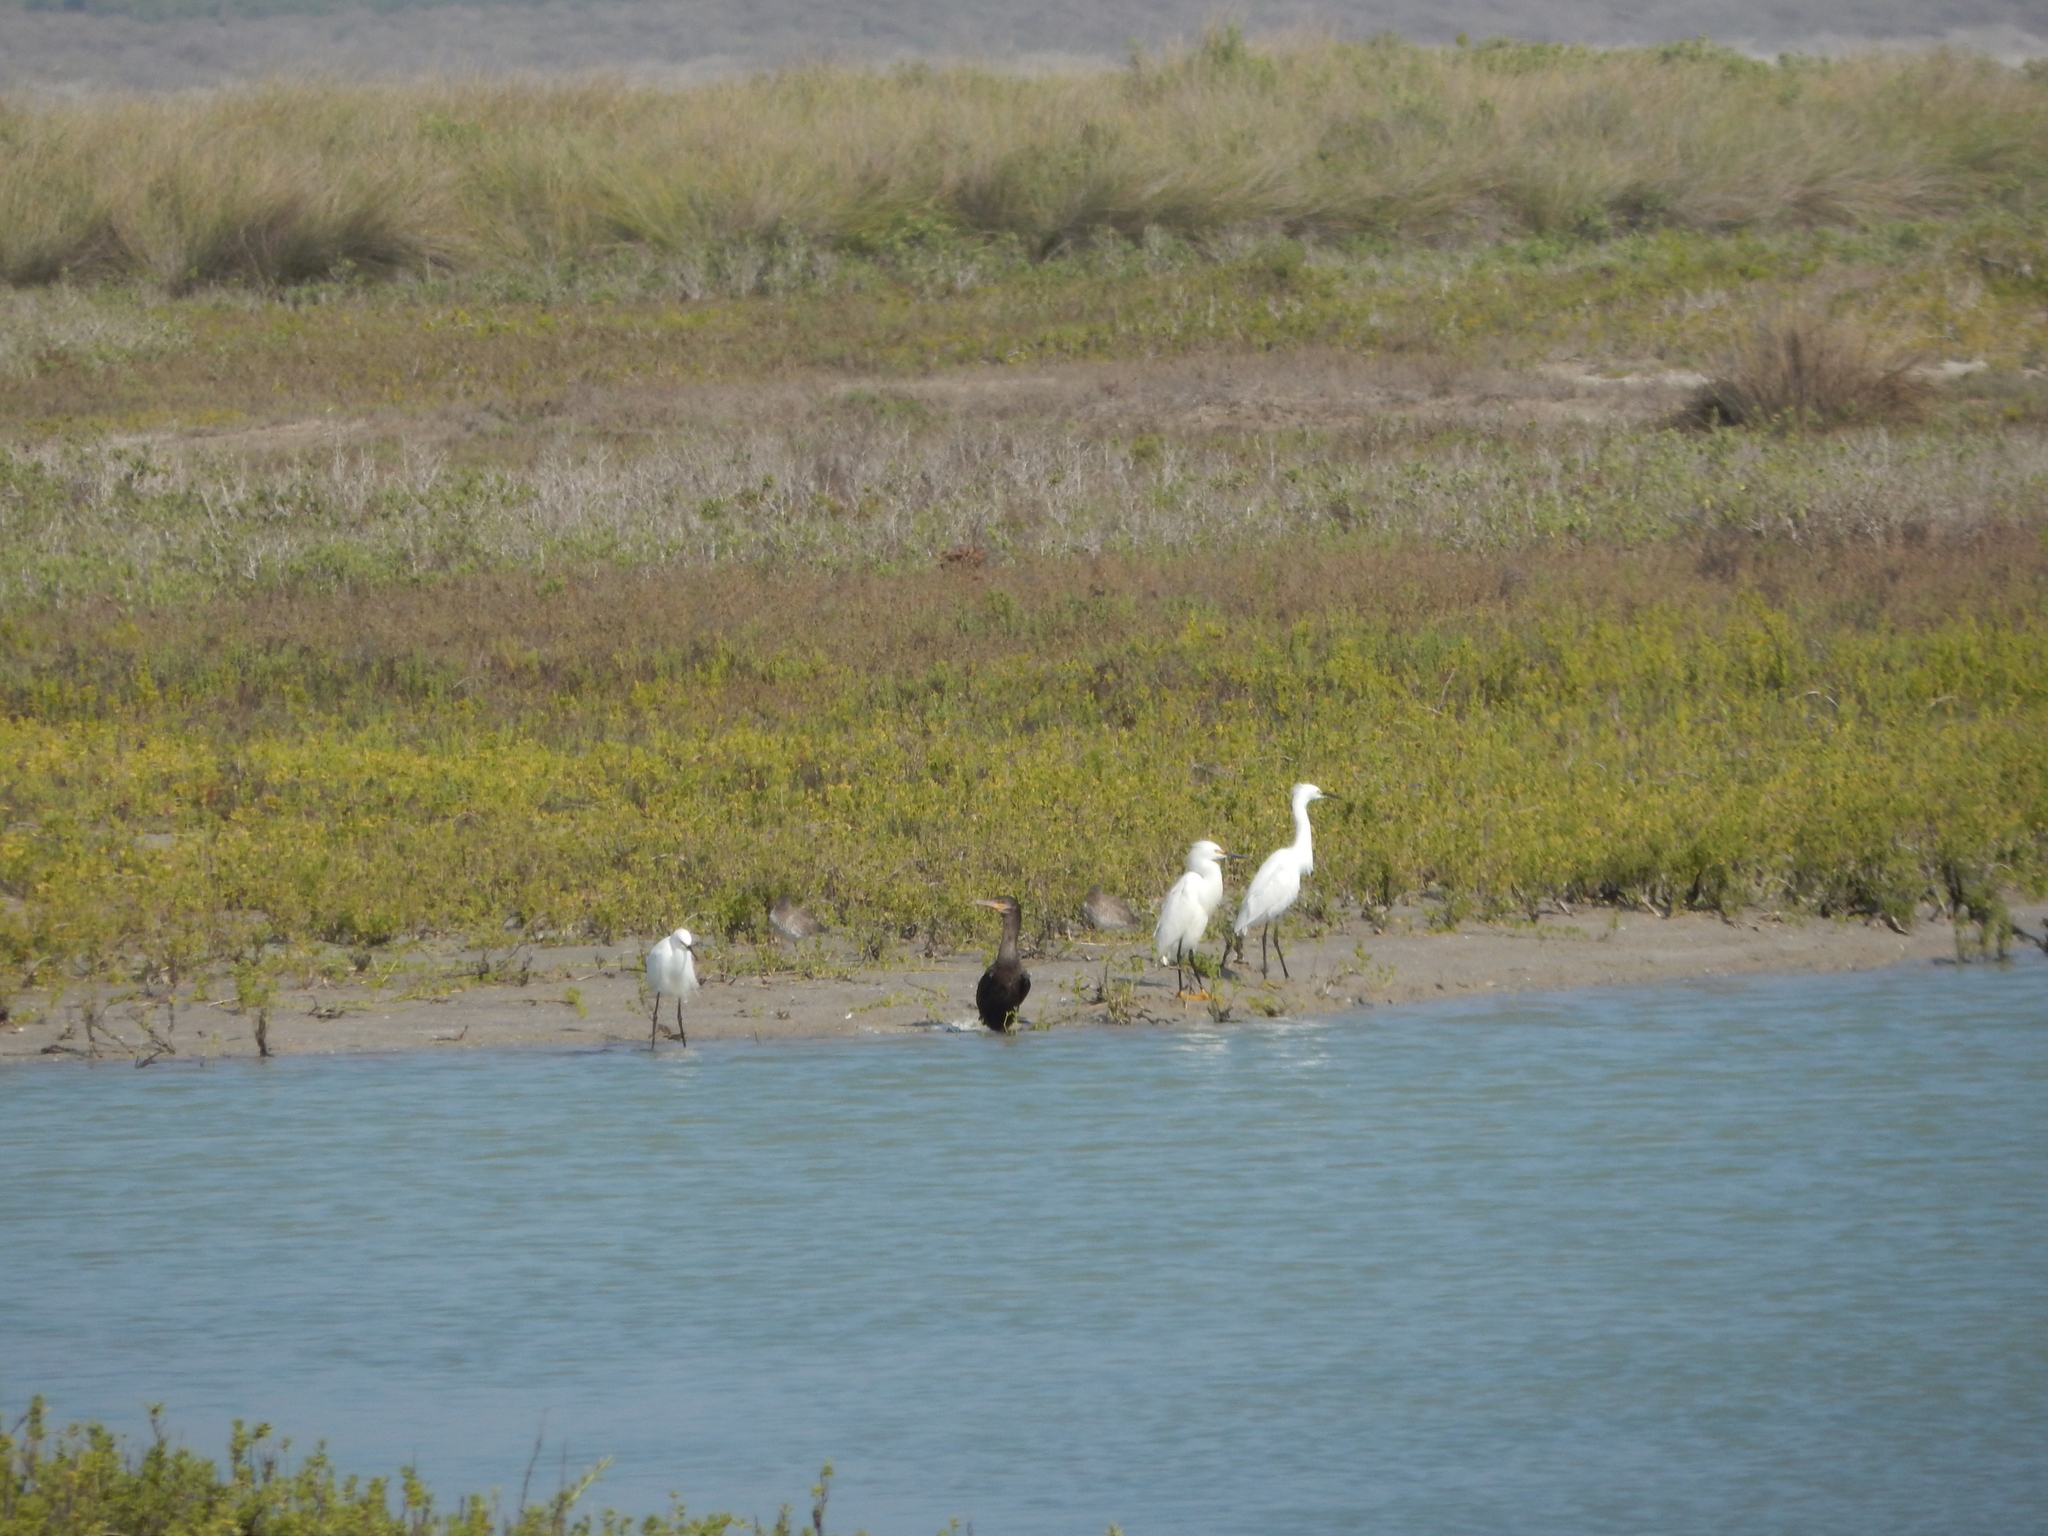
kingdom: Animalia
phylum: Chordata
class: Aves
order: Suliformes
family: Phalacrocoracidae
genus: Phalacrocorax
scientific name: Phalacrocorax brasilianus
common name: Neotropic cormorant
